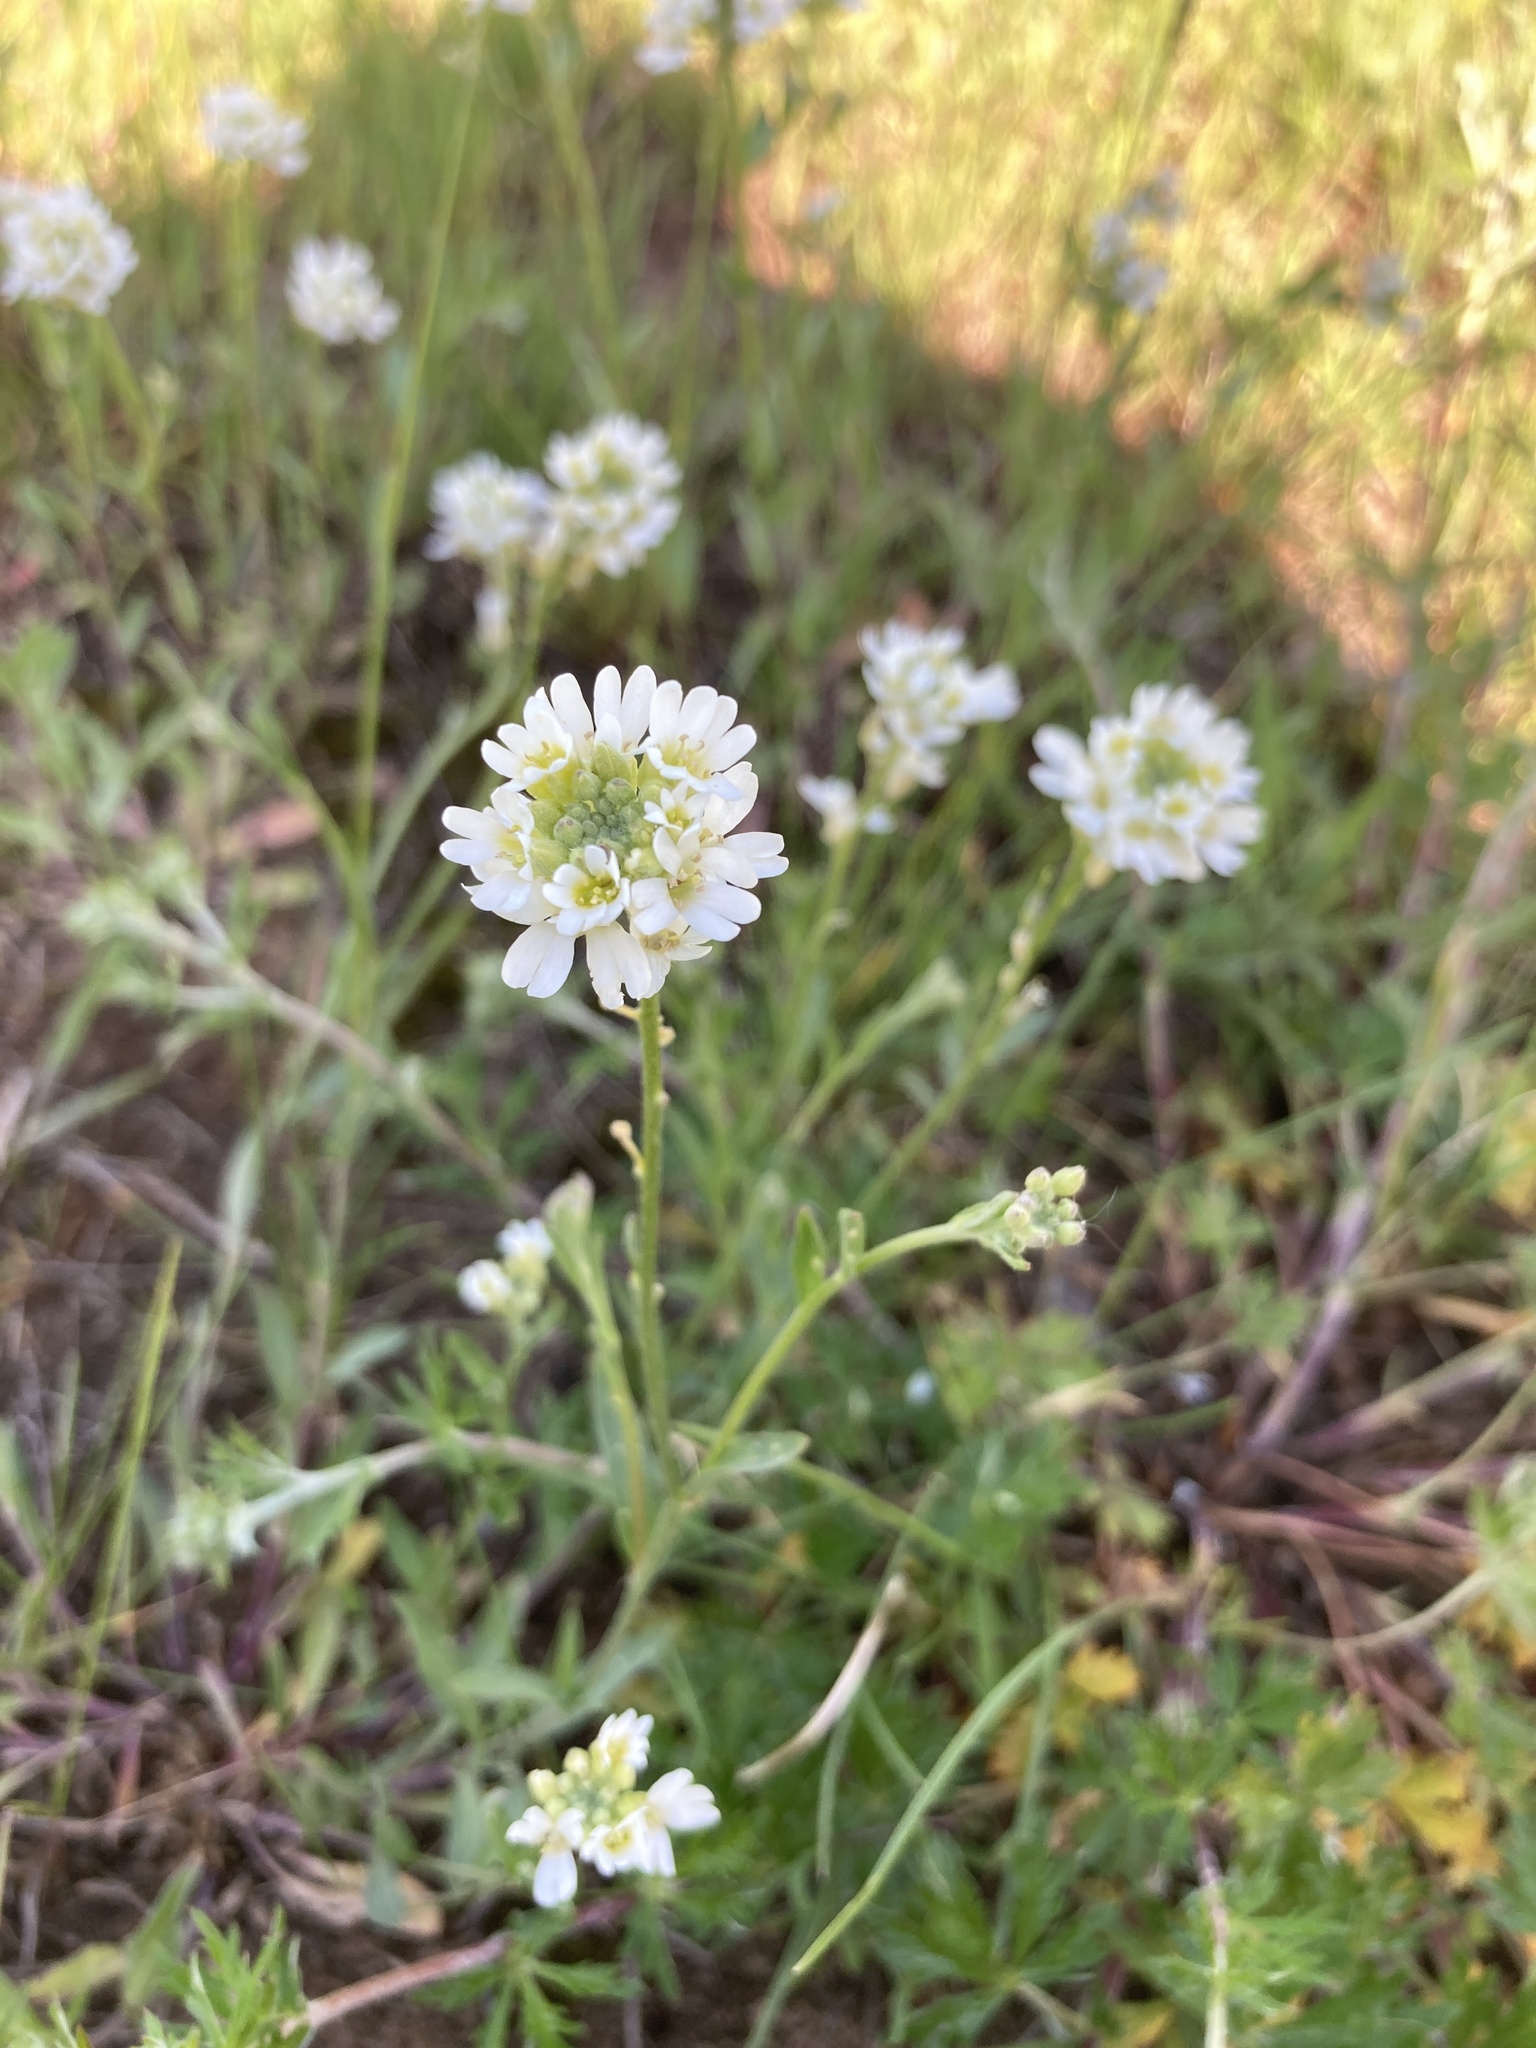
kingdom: Plantae
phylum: Tracheophyta
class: Magnoliopsida
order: Brassicales
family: Brassicaceae
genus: Berteroa
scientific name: Berteroa incana
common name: Hoary alison
